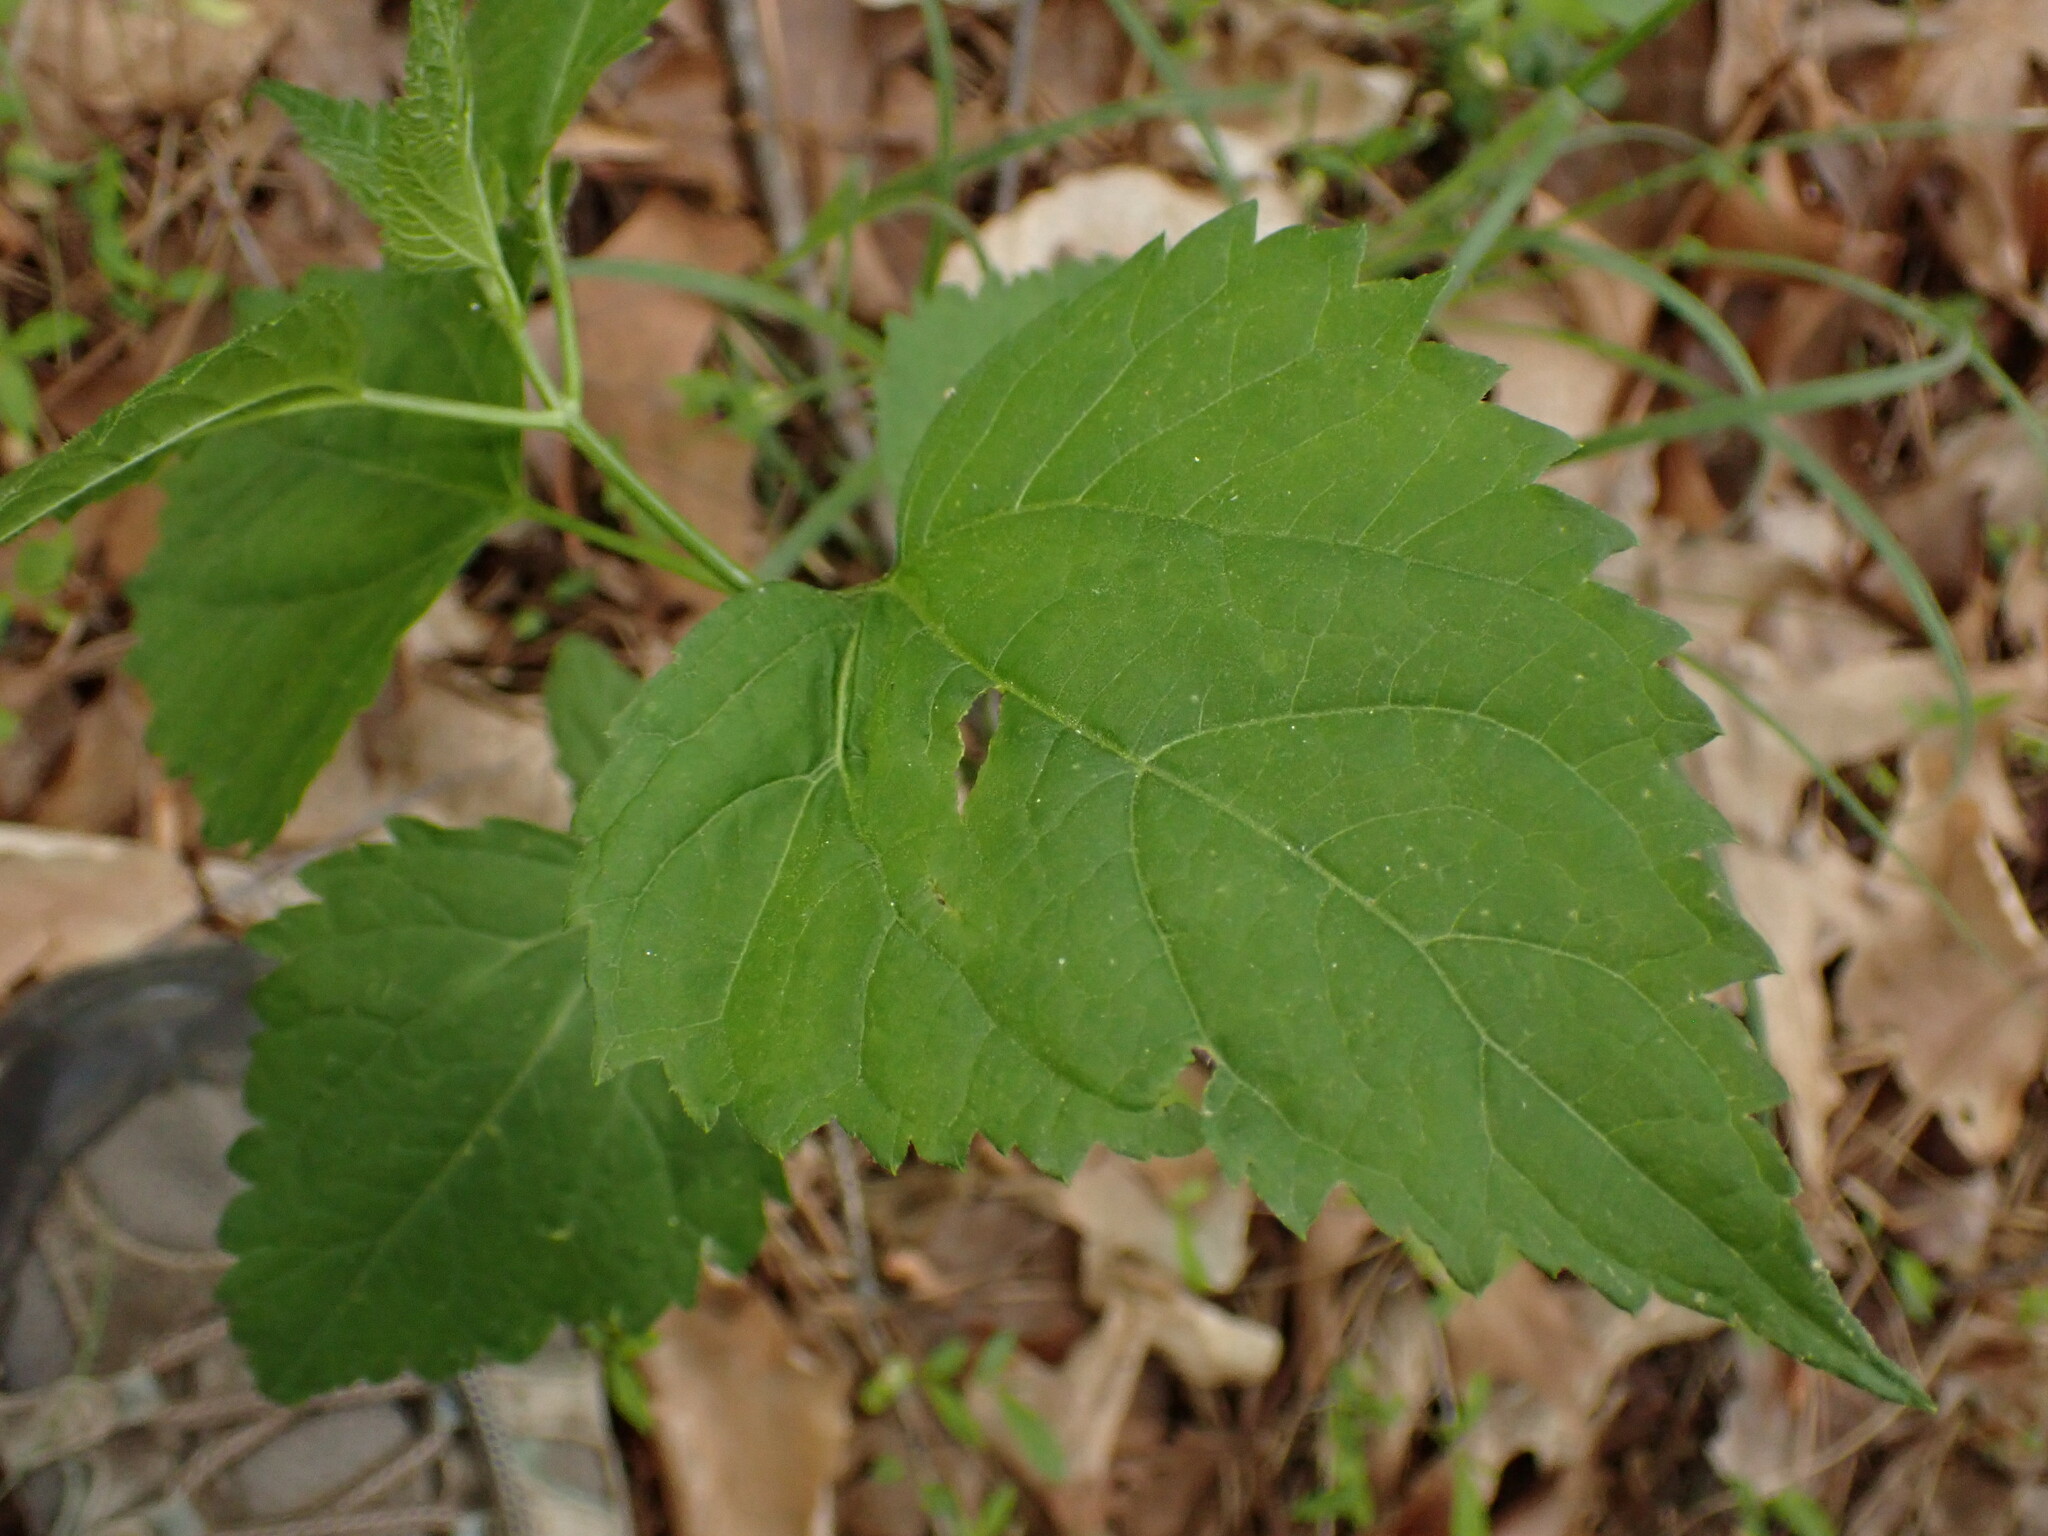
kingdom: Plantae
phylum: Tracheophyta
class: Magnoliopsida
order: Asterales
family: Asteraceae
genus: Ageratina
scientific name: Ageratina altissima
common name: White snakeroot
